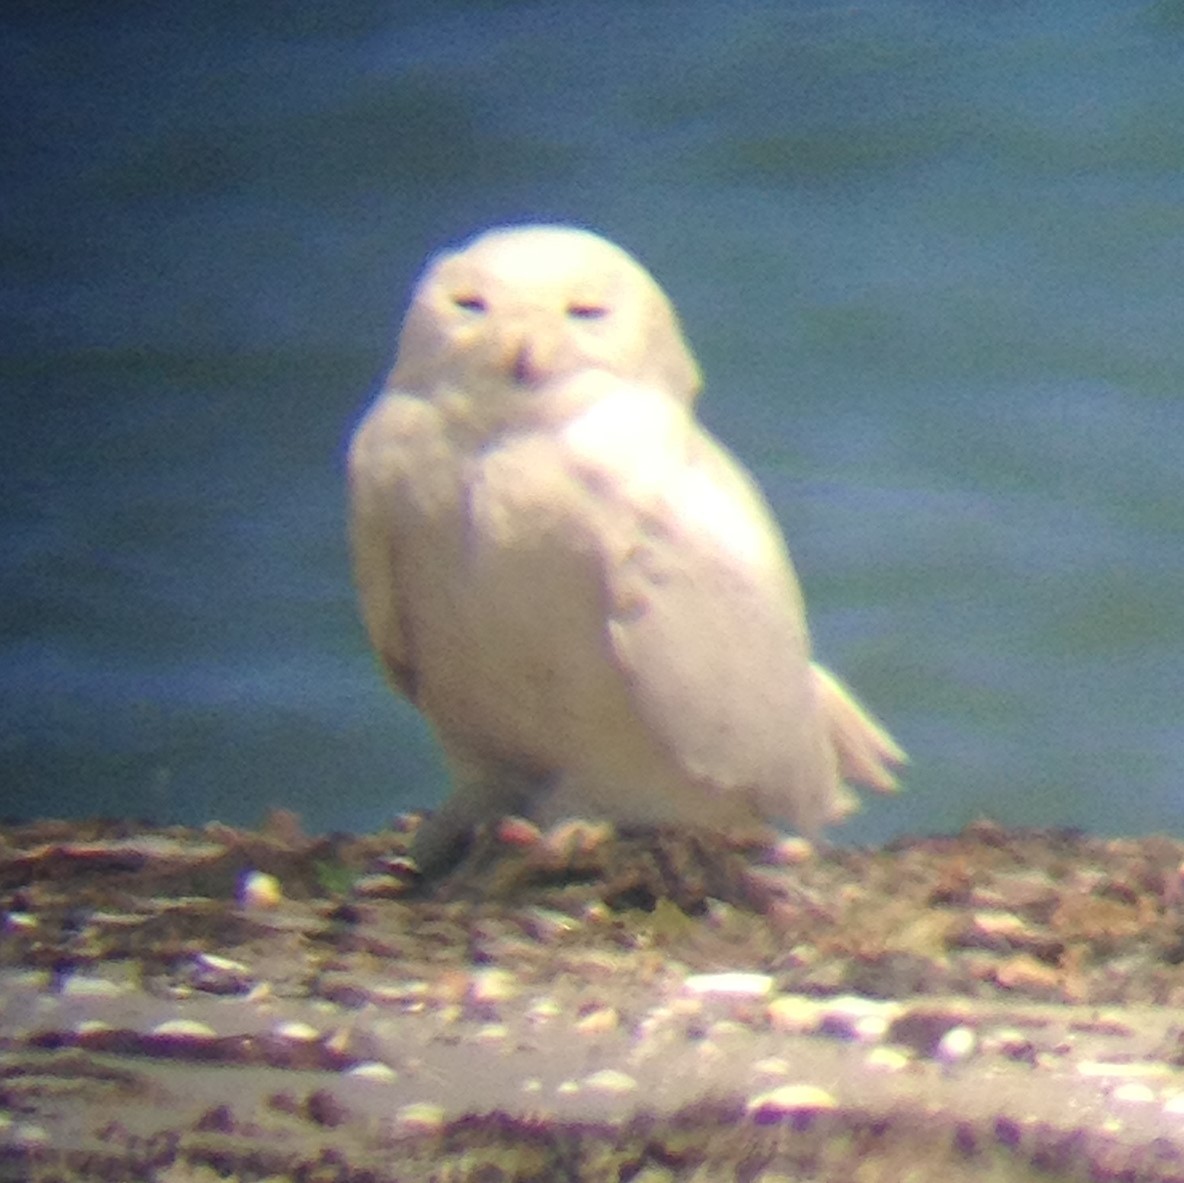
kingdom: Animalia
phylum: Chordata
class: Aves
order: Strigiformes
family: Strigidae
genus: Bubo
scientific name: Bubo scandiacus
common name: Snowy owl
